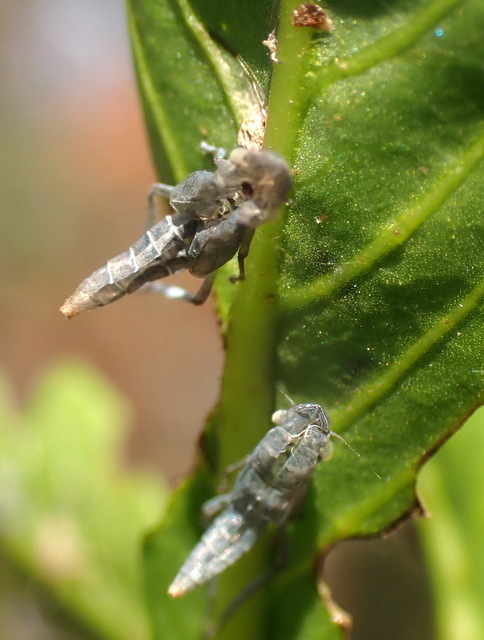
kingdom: Animalia
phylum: Arthropoda
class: Insecta
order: Hemiptera
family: Cicadellidae
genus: Draeculacephala
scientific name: Draeculacephala inscripta
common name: Leafhopper
